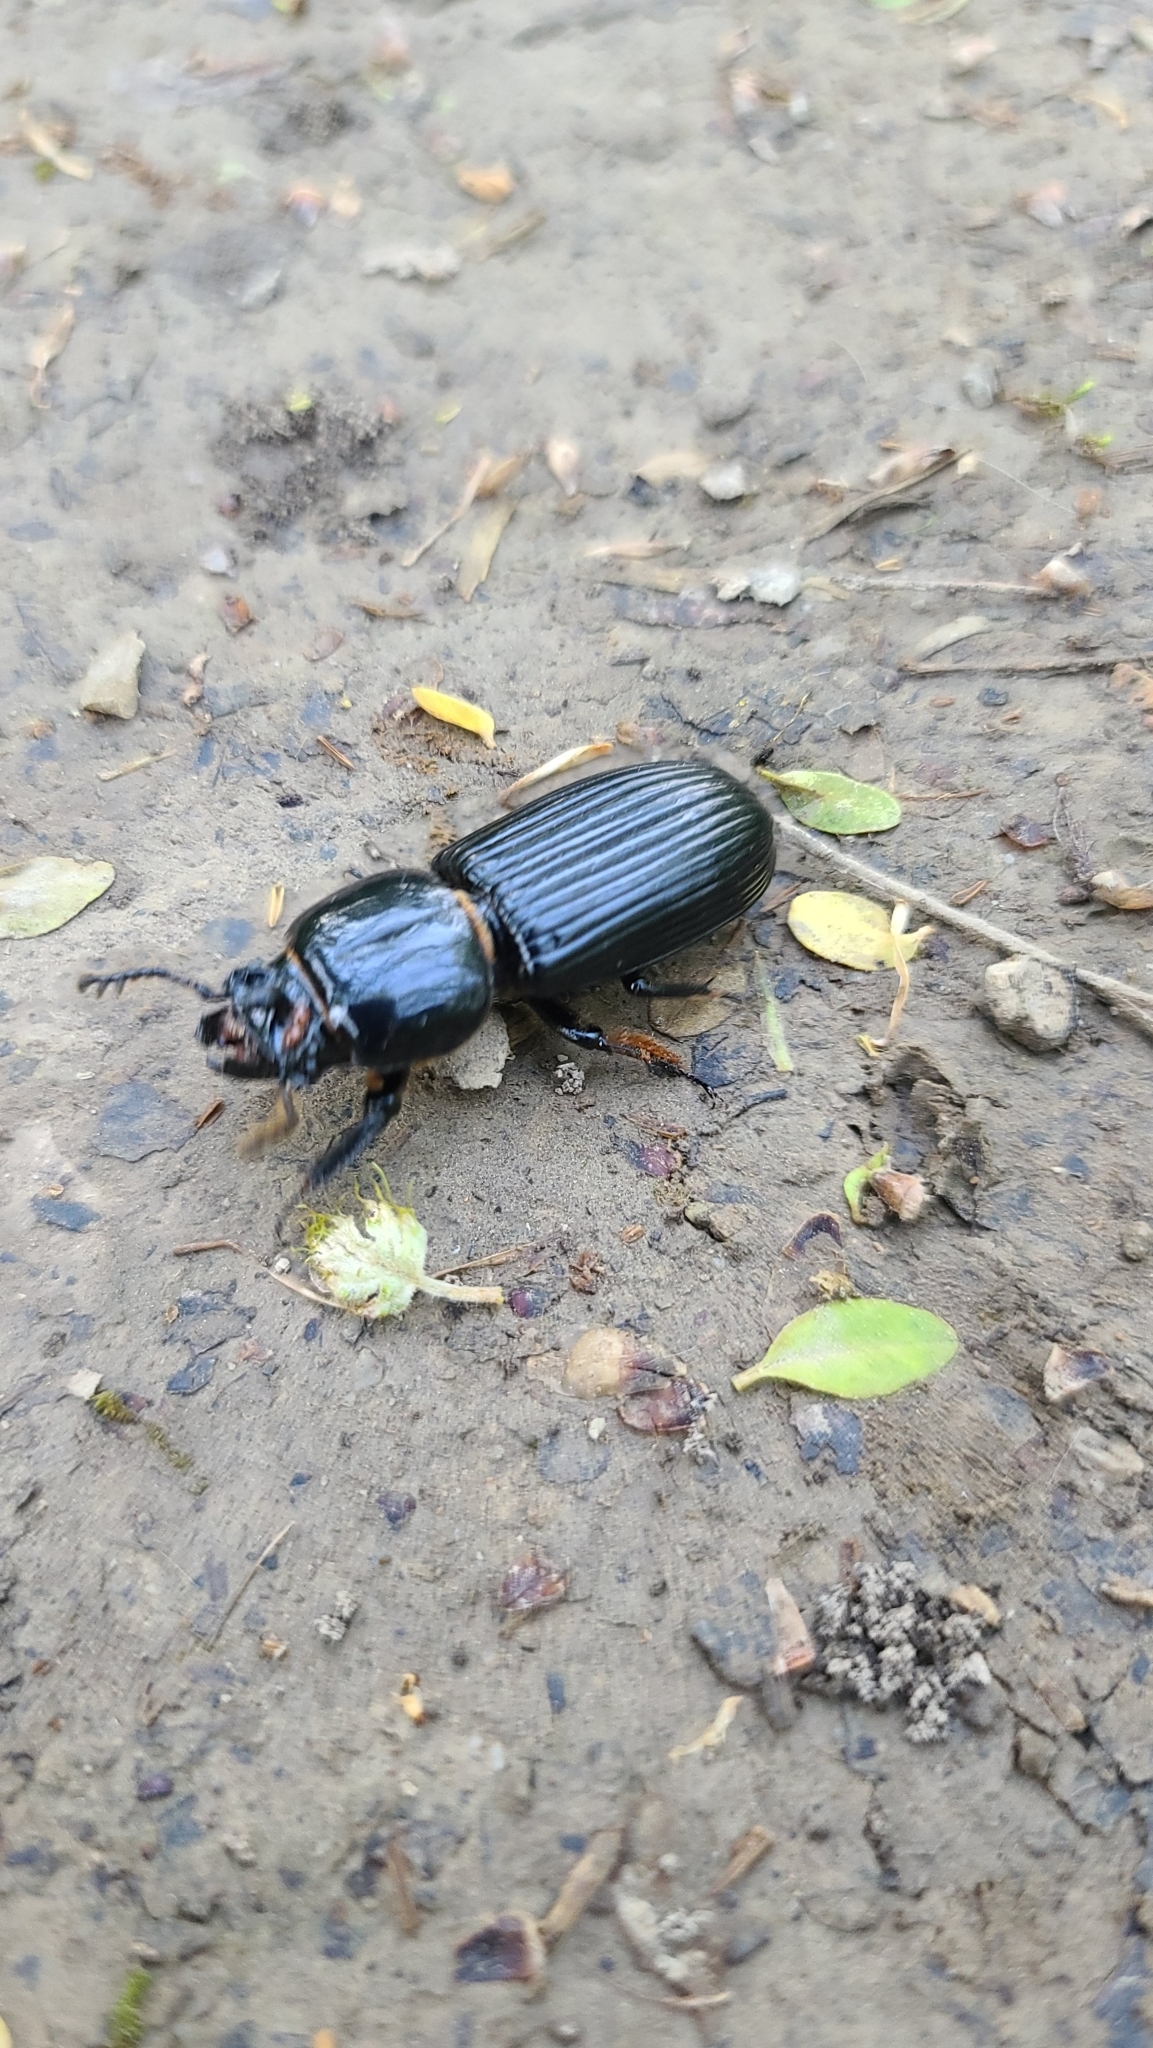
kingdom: Animalia
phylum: Arthropoda
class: Insecta
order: Coleoptera
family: Passalidae
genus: Odontotaenius
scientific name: Odontotaenius disjunctus
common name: Patent leather beetle
